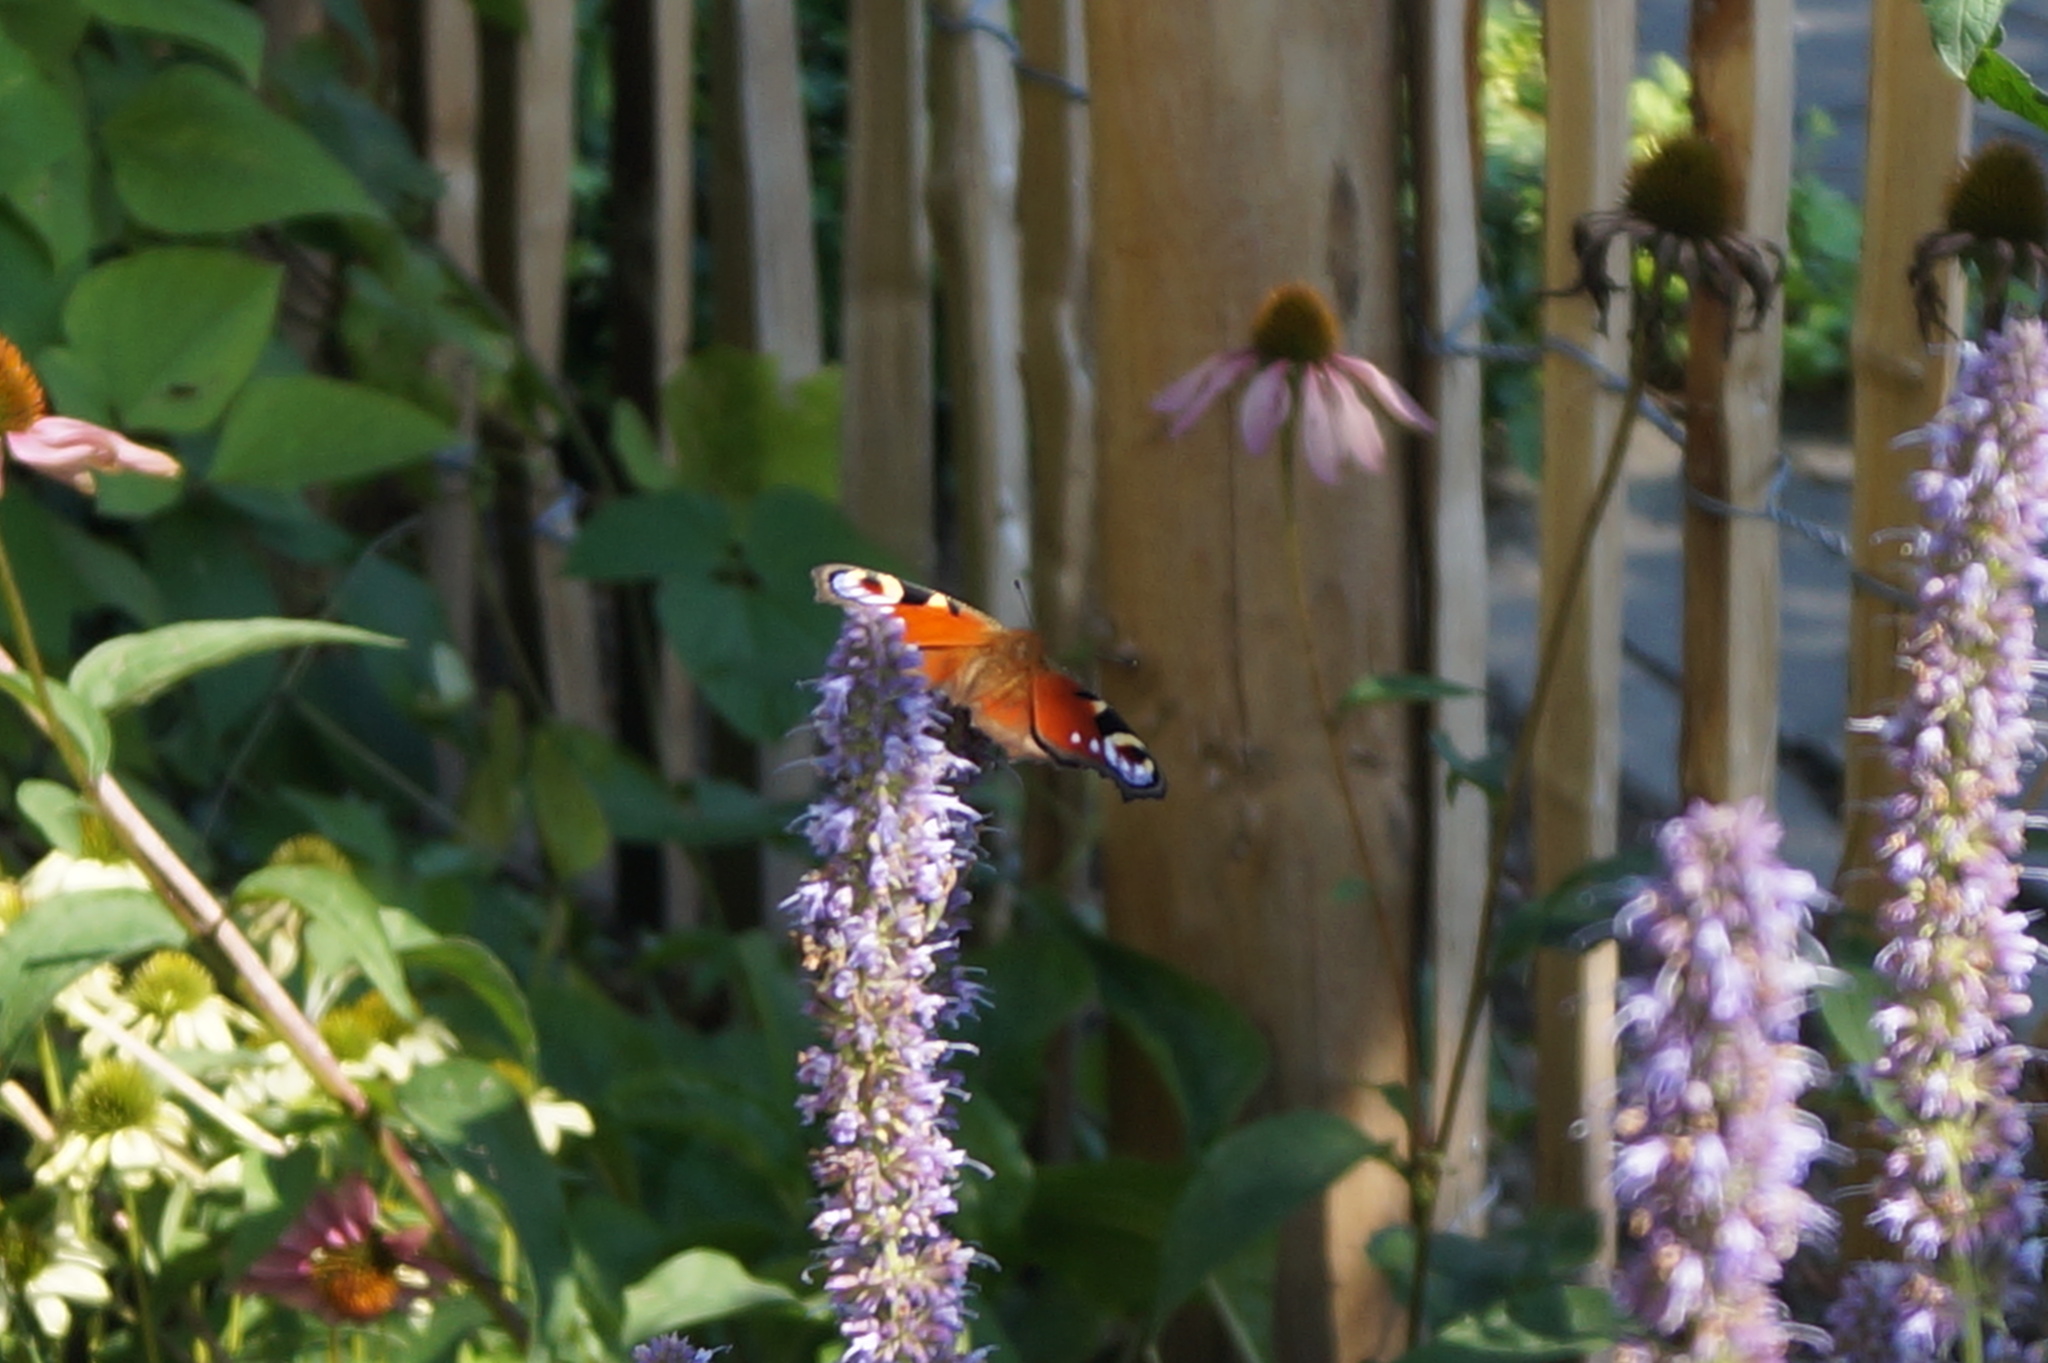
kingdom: Animalia
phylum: Arthropoda
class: Insecta
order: Lepidoptera
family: Nymphalidae
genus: Aglais
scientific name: Aglais io
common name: Peacock
